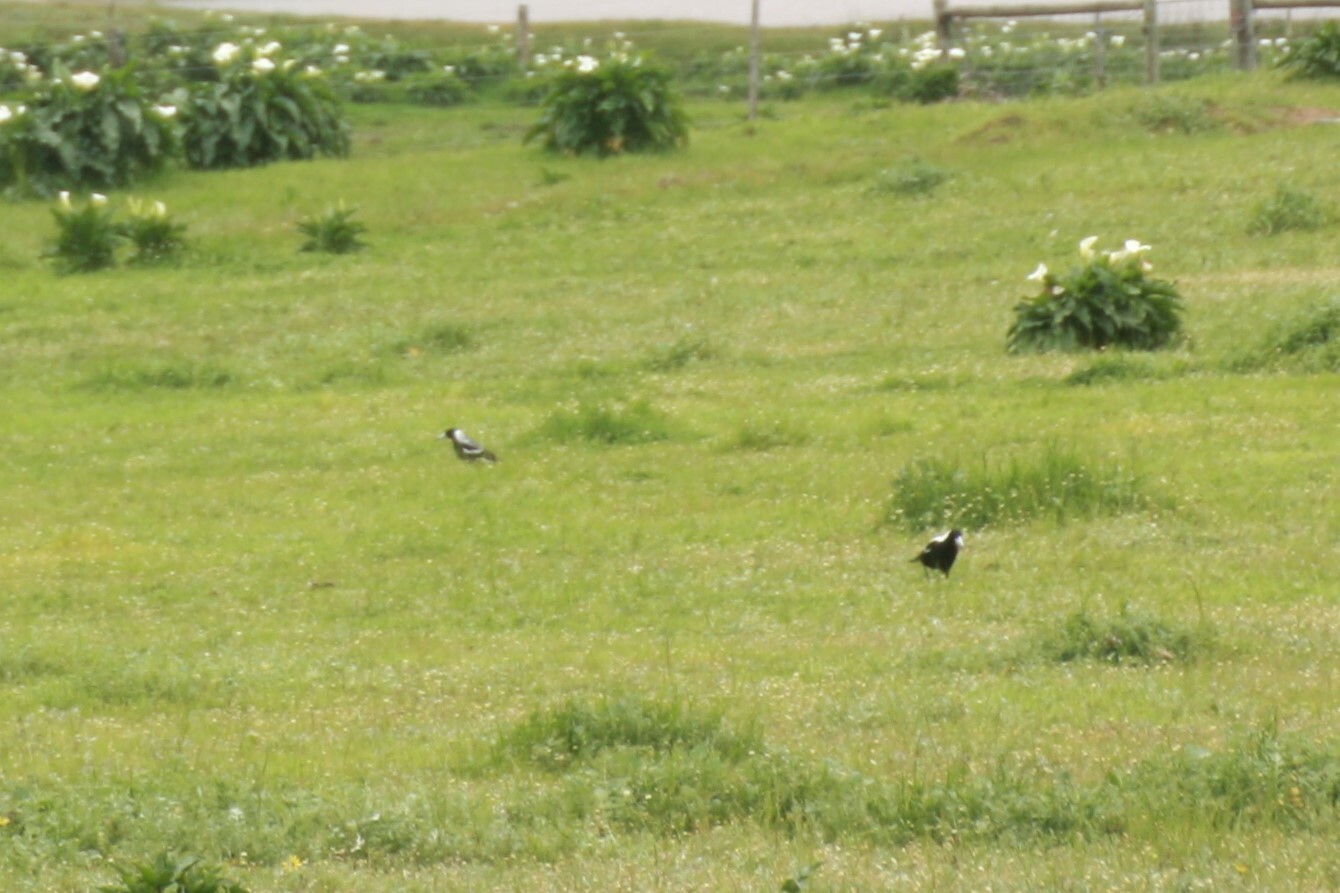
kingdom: Animalia
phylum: Chordata
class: Aves
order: Passeriformes
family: Cracticidae
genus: Gymnorhina
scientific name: Gymnorhina tibicen
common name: Australian magpie
